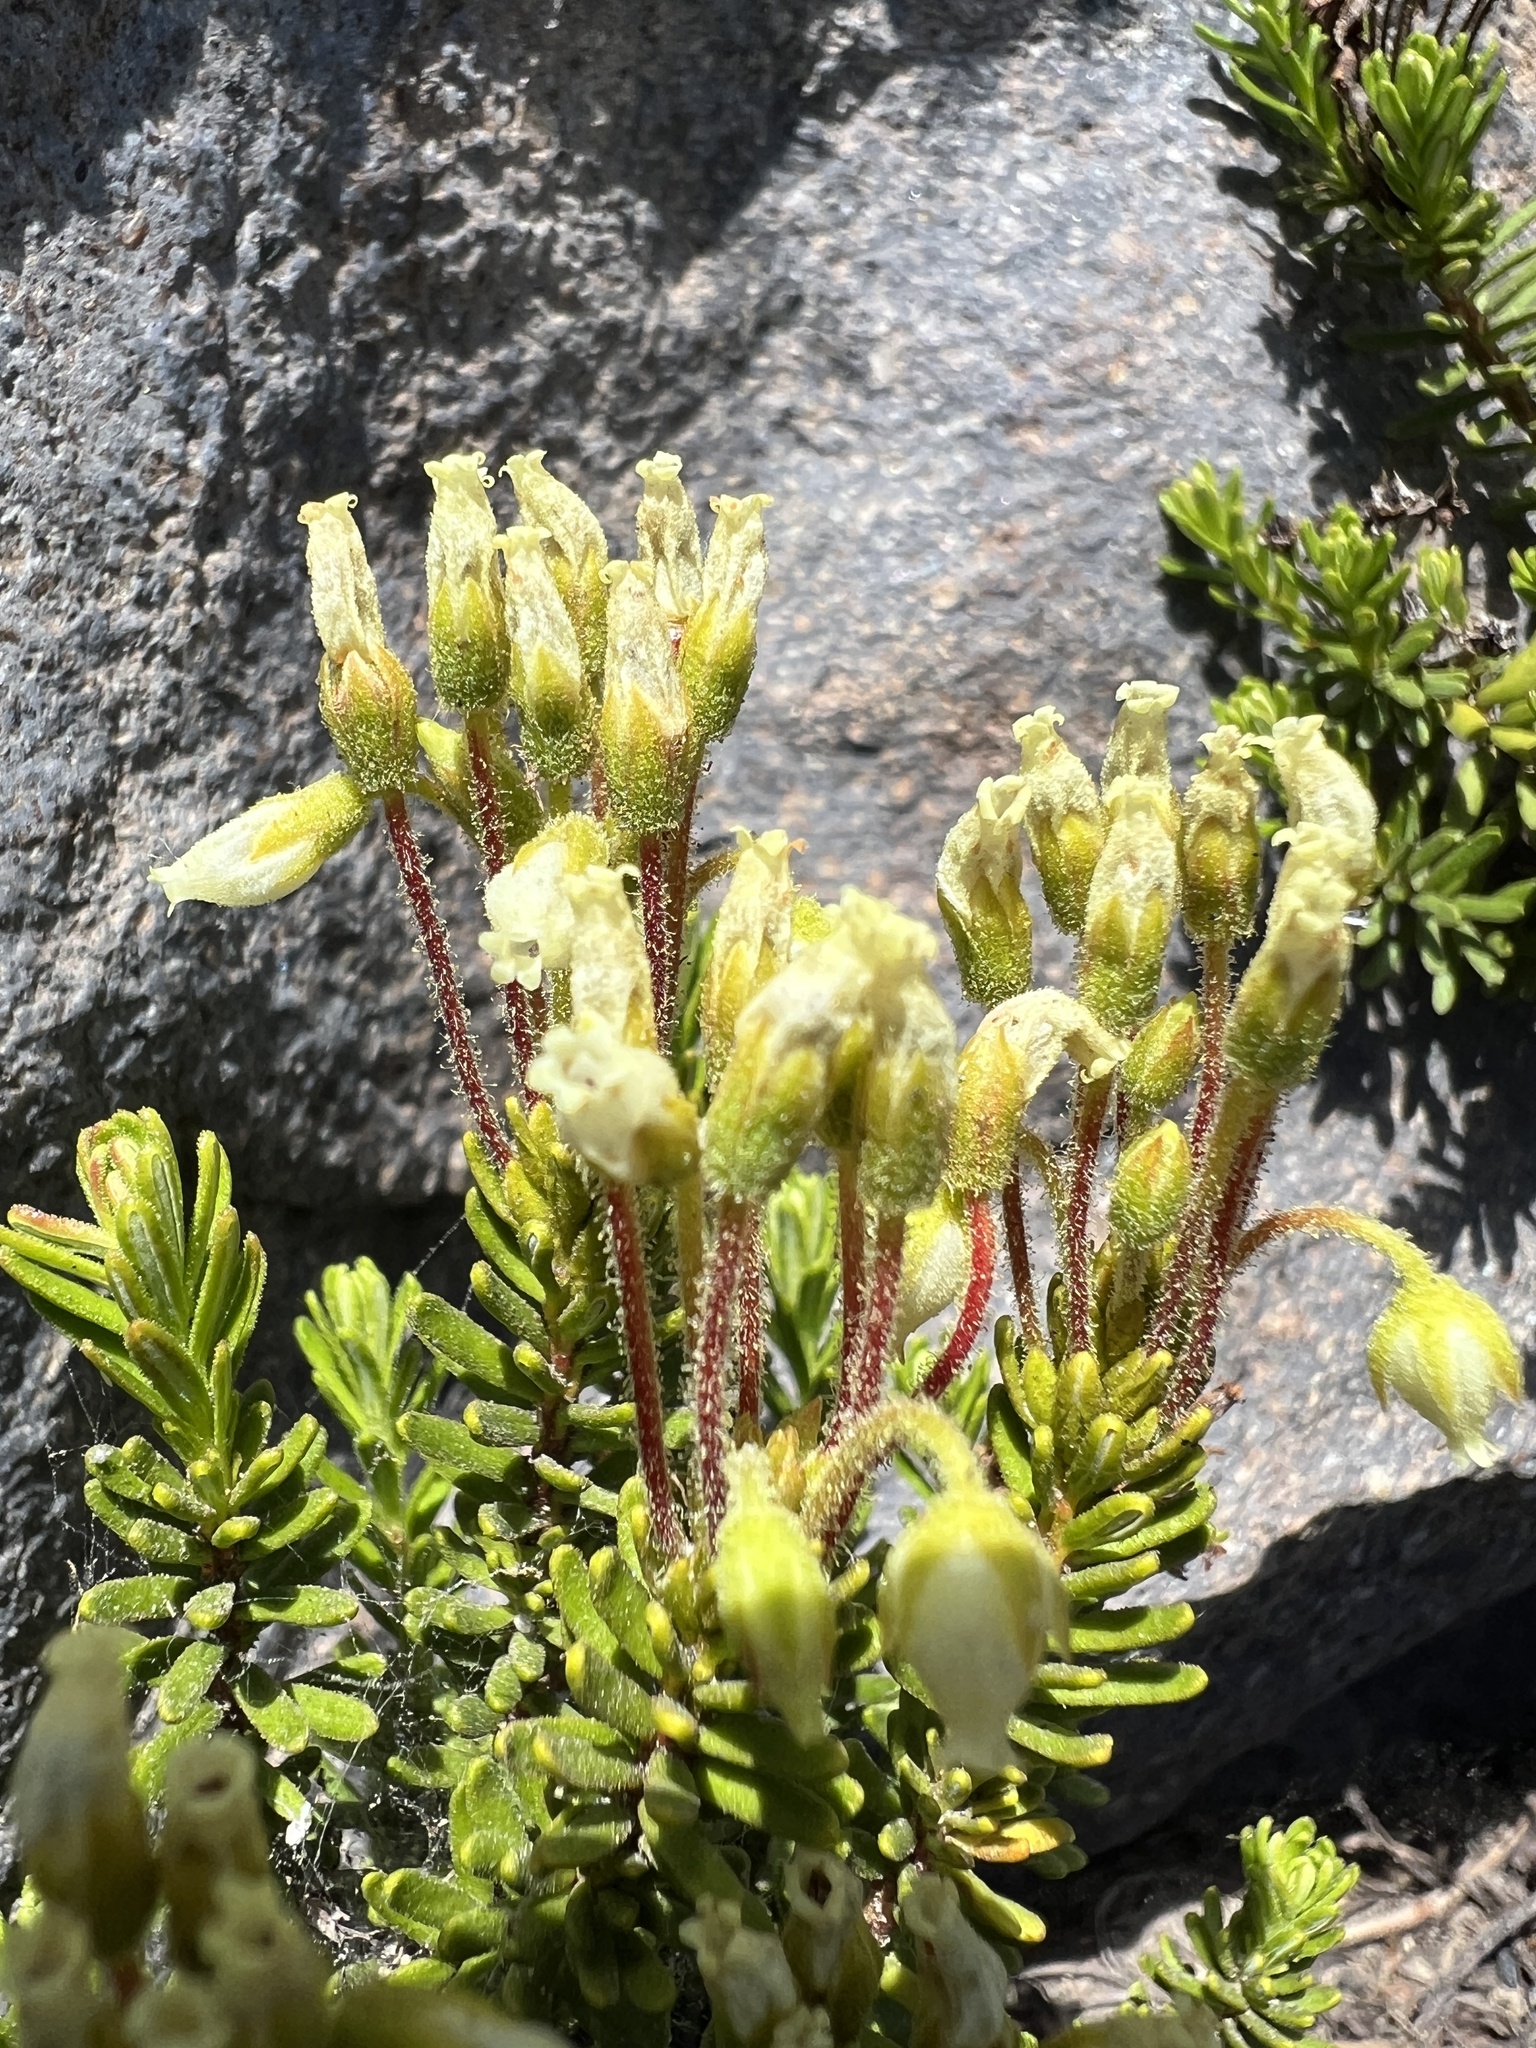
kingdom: Plantae
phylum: Tracheophyta
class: Magnoliopsida
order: Ericales
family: Ericaceae
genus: Phyllodoce
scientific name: Phyllodoce glanduliflora
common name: Cream mountain heather
